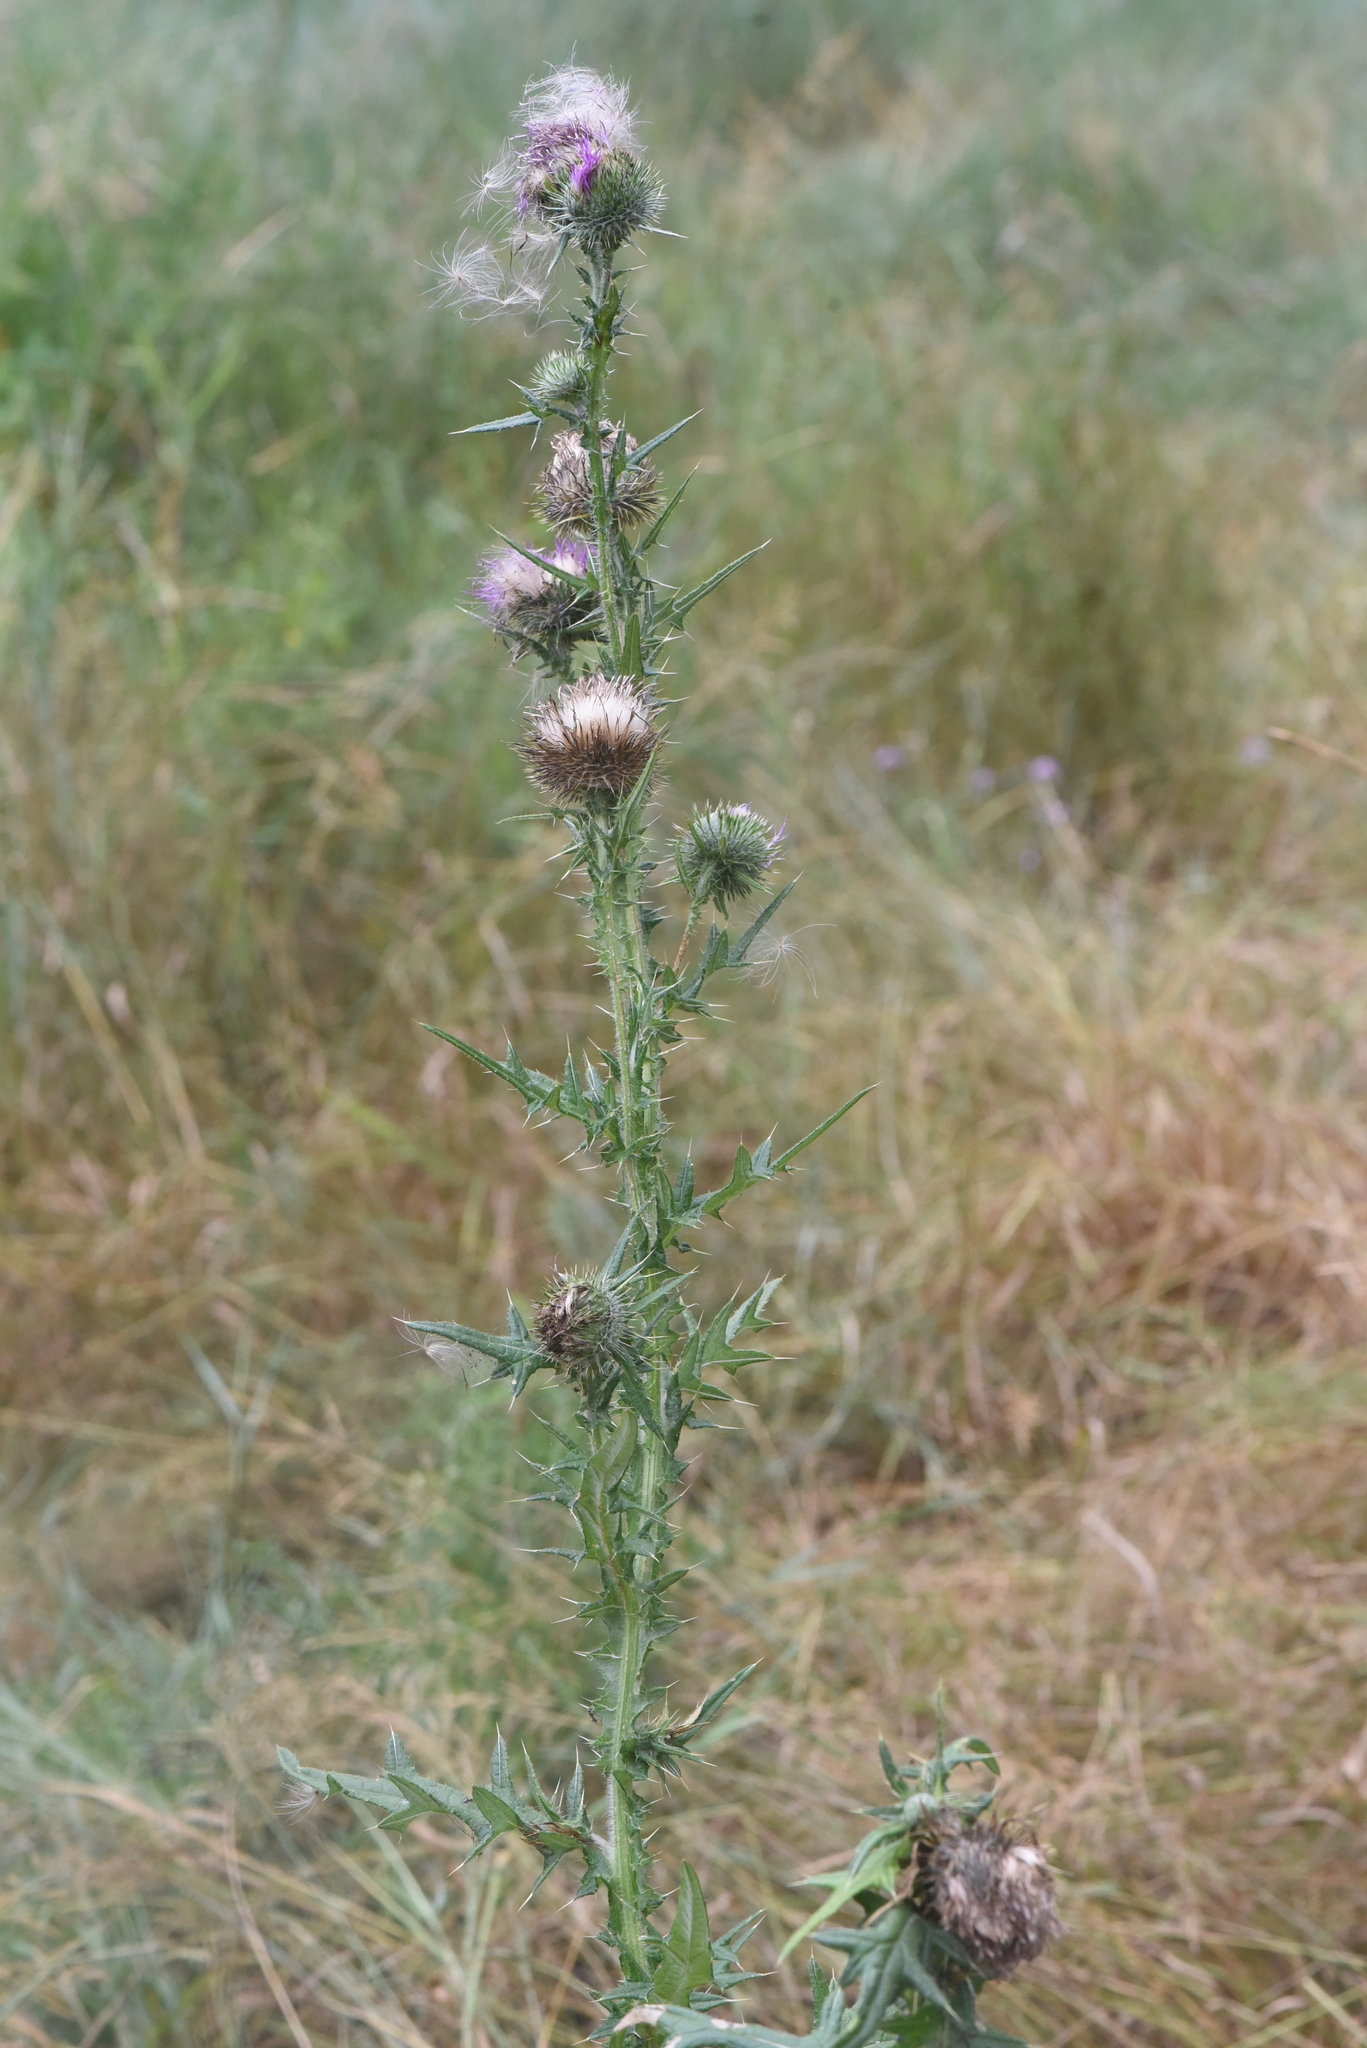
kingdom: Plantae
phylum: Tracheophyta
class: Magnoliopsida
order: Asterales
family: Asteraceae
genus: Cirsium
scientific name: Cirsium vulgare
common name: Bull thistle
